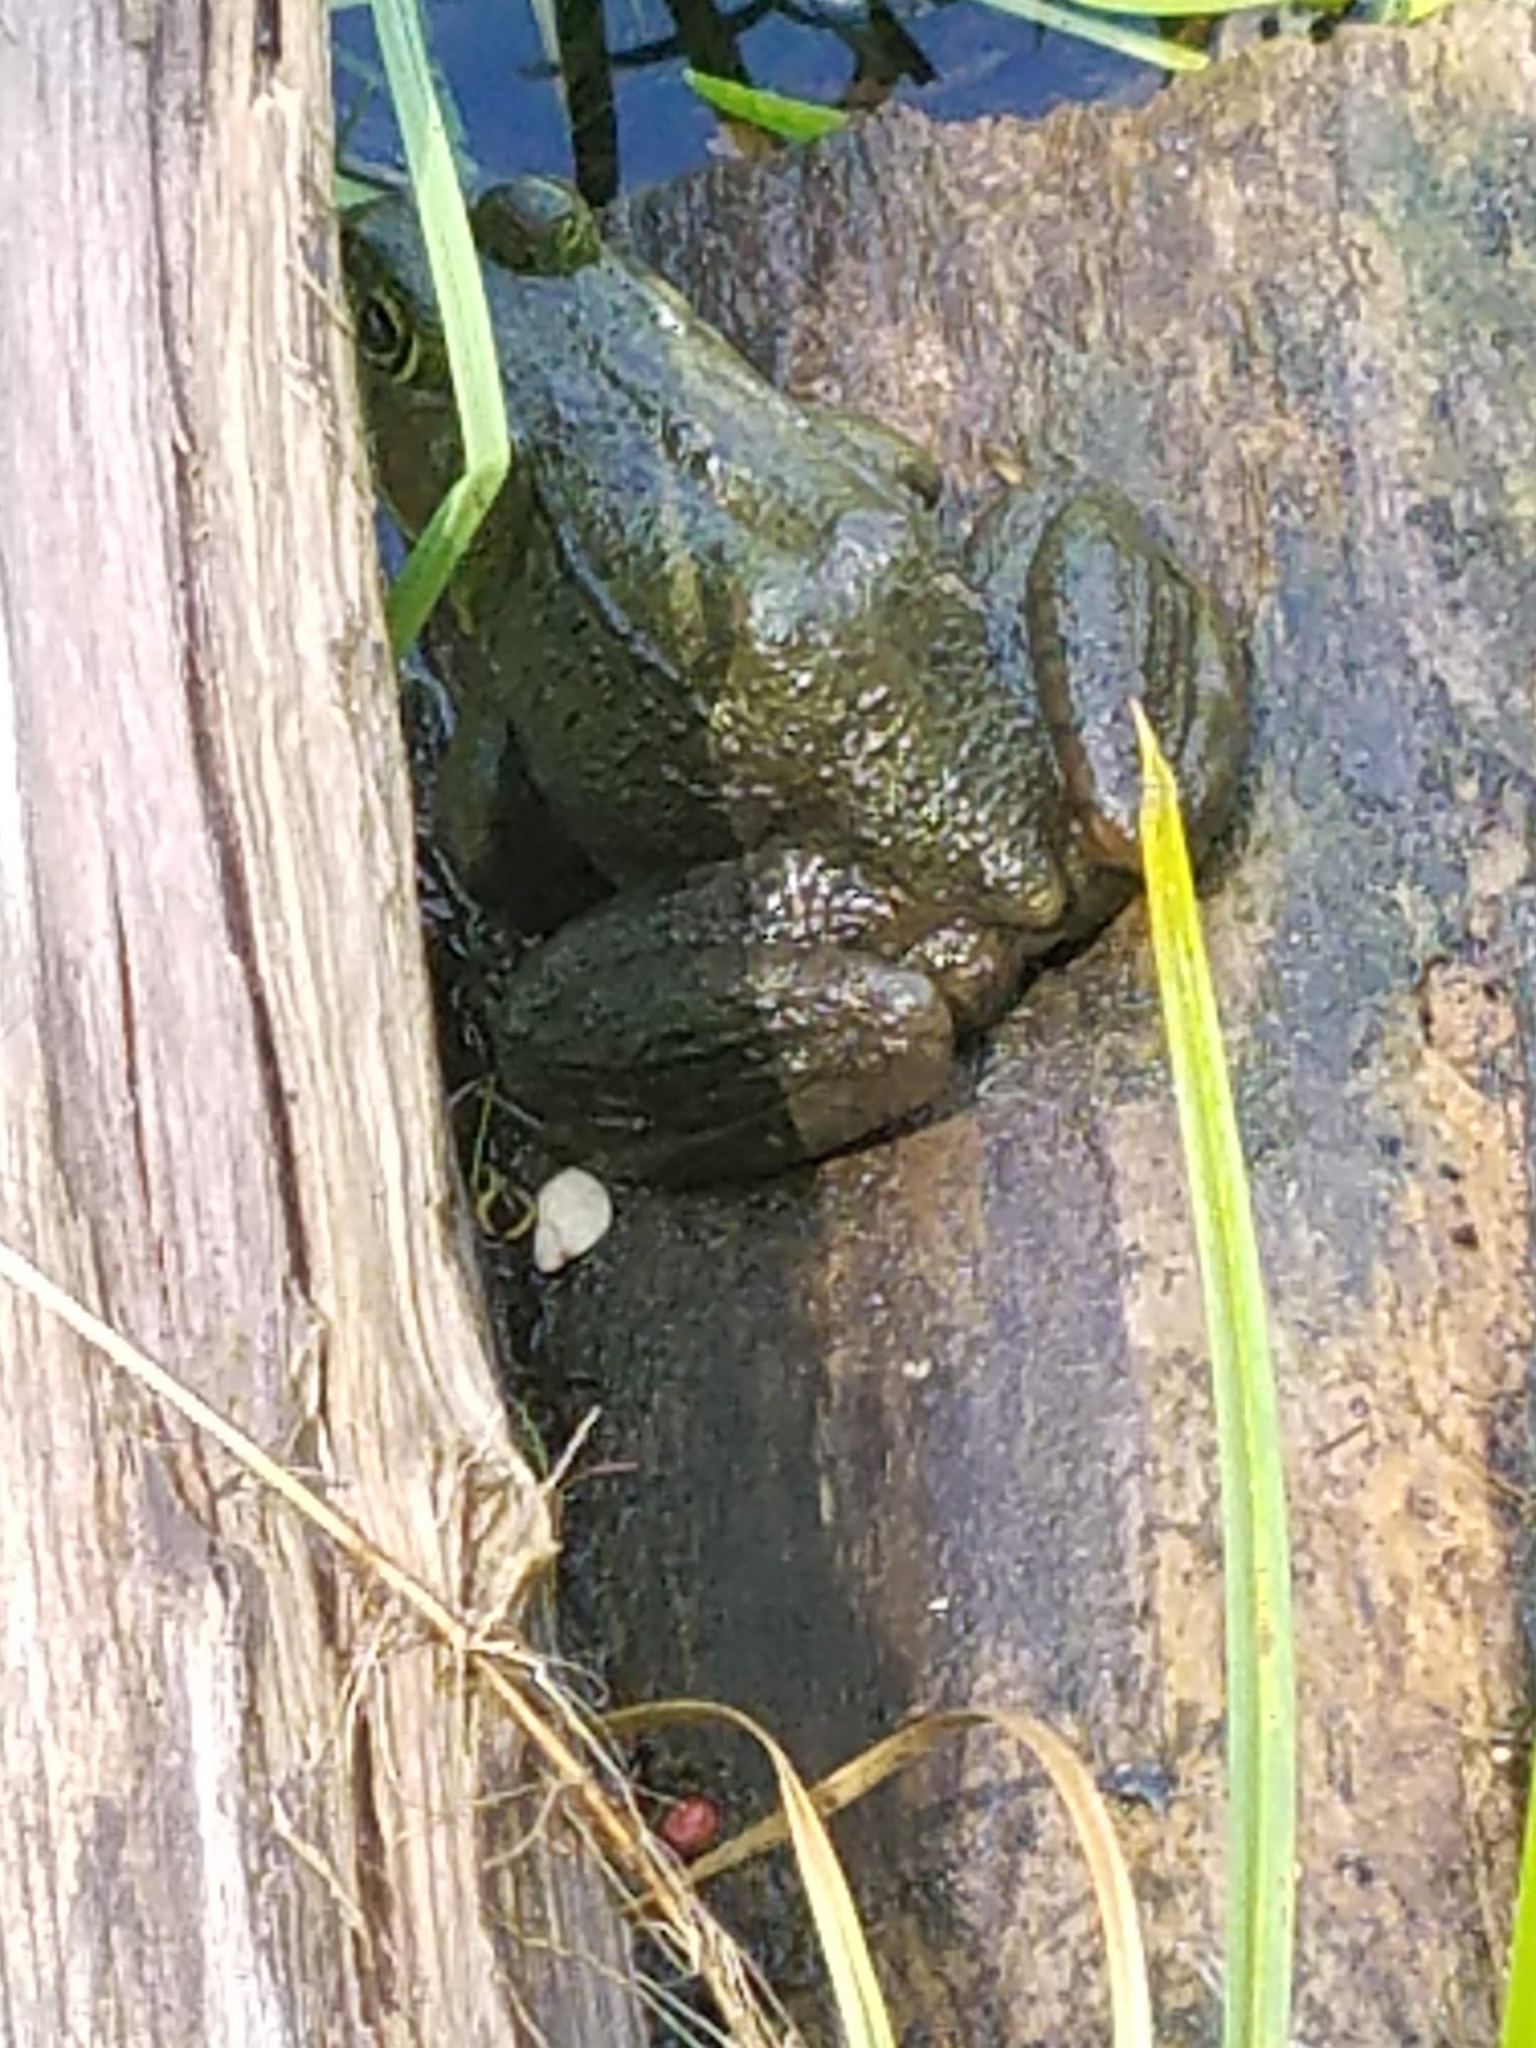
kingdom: Animalia
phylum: Chordata
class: Amphibia
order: Anura
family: Ranidae
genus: Lithobates
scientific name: Lithobates clamitans
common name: Green frog
